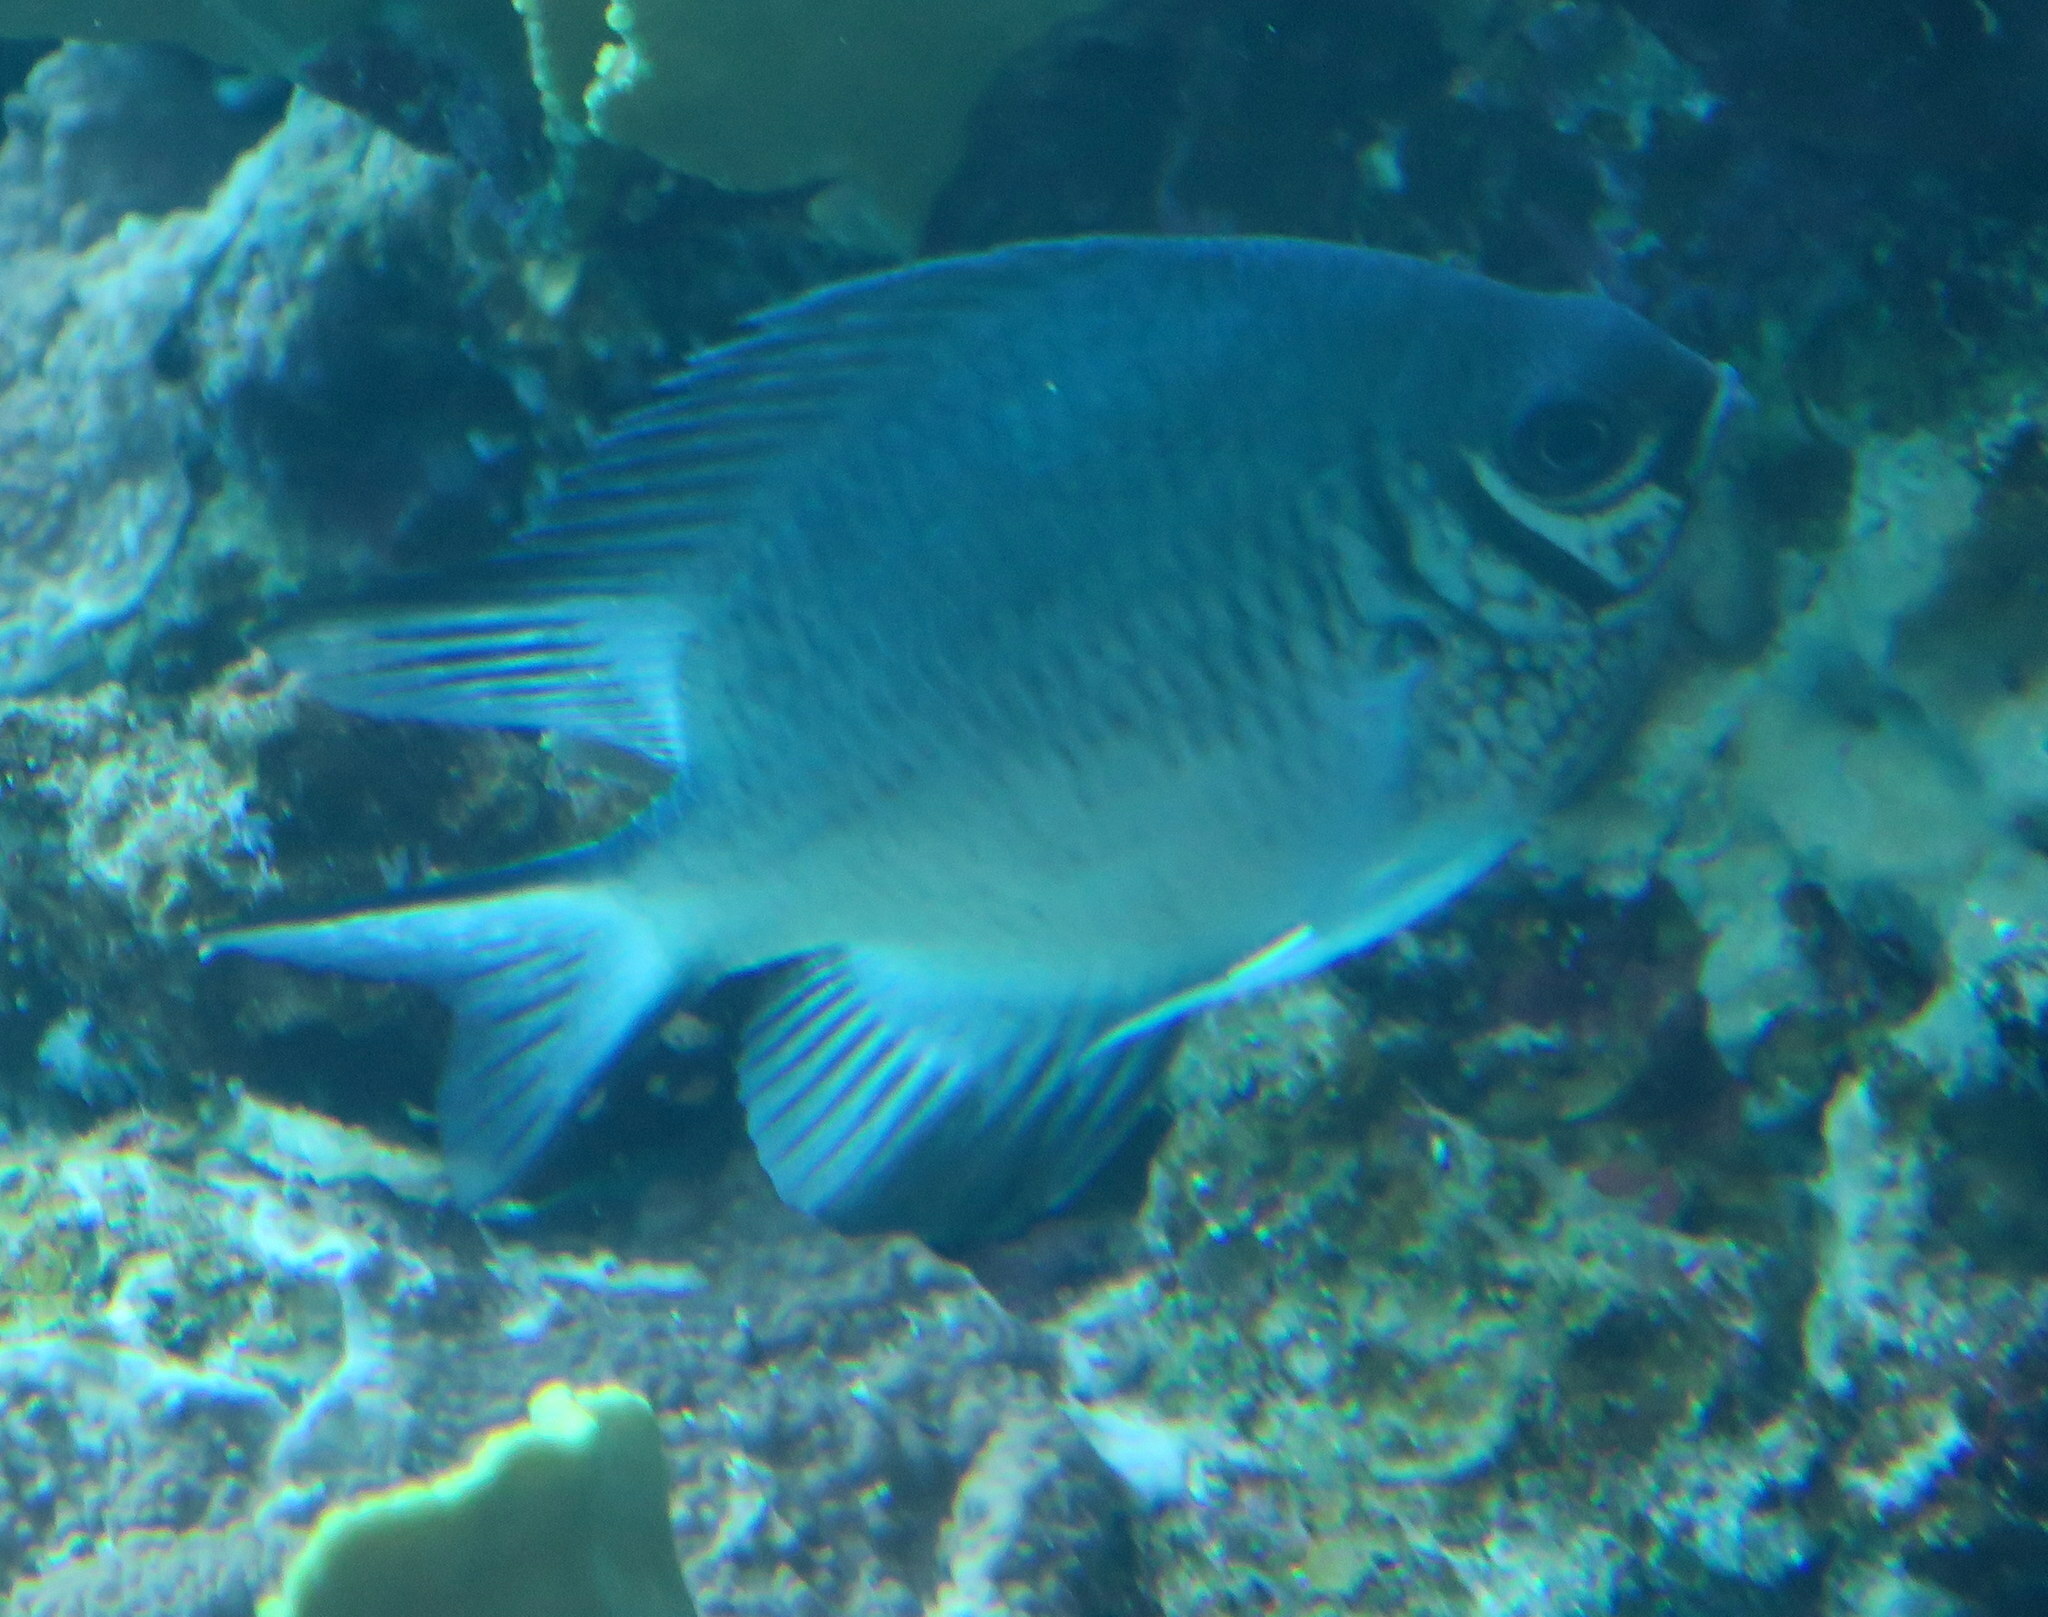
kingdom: Animalia
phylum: Chordata
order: Perciformes
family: Pomacentridae
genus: Amblyglyphidodon
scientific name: Amblyglyphidodon indicus
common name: Maldives damselfish
